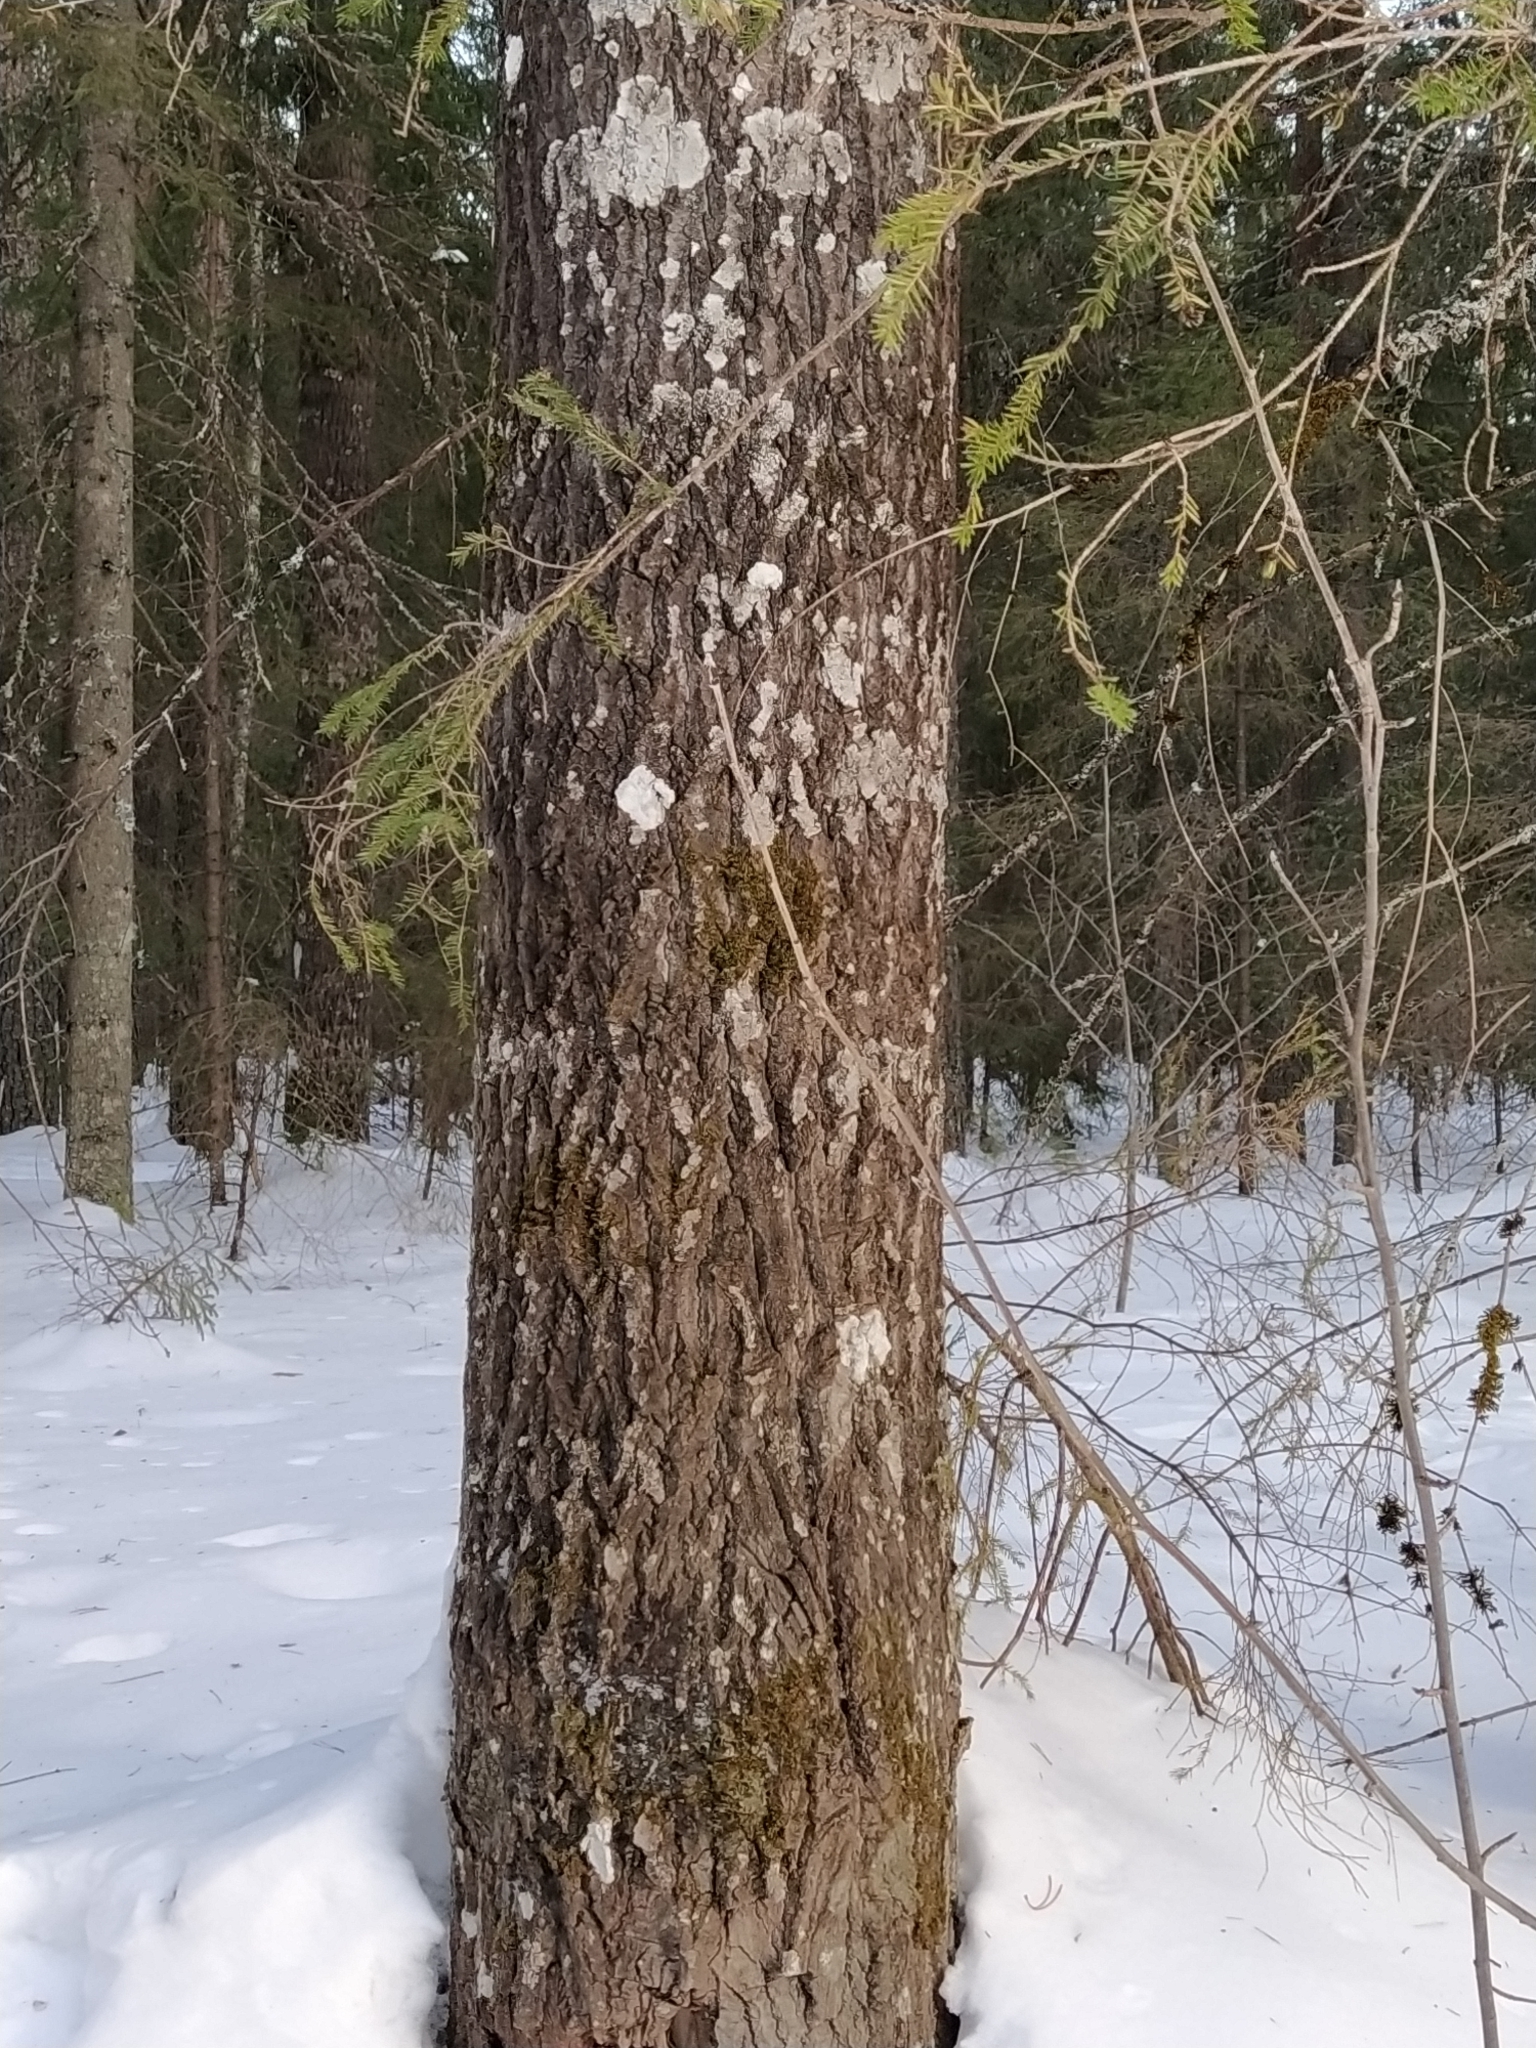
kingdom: Plantae
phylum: Tracheophyta
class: Magnoliopsida
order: Malpighiales
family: Salicaceae
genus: Populus
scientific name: Populus tremula
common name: European aspen
